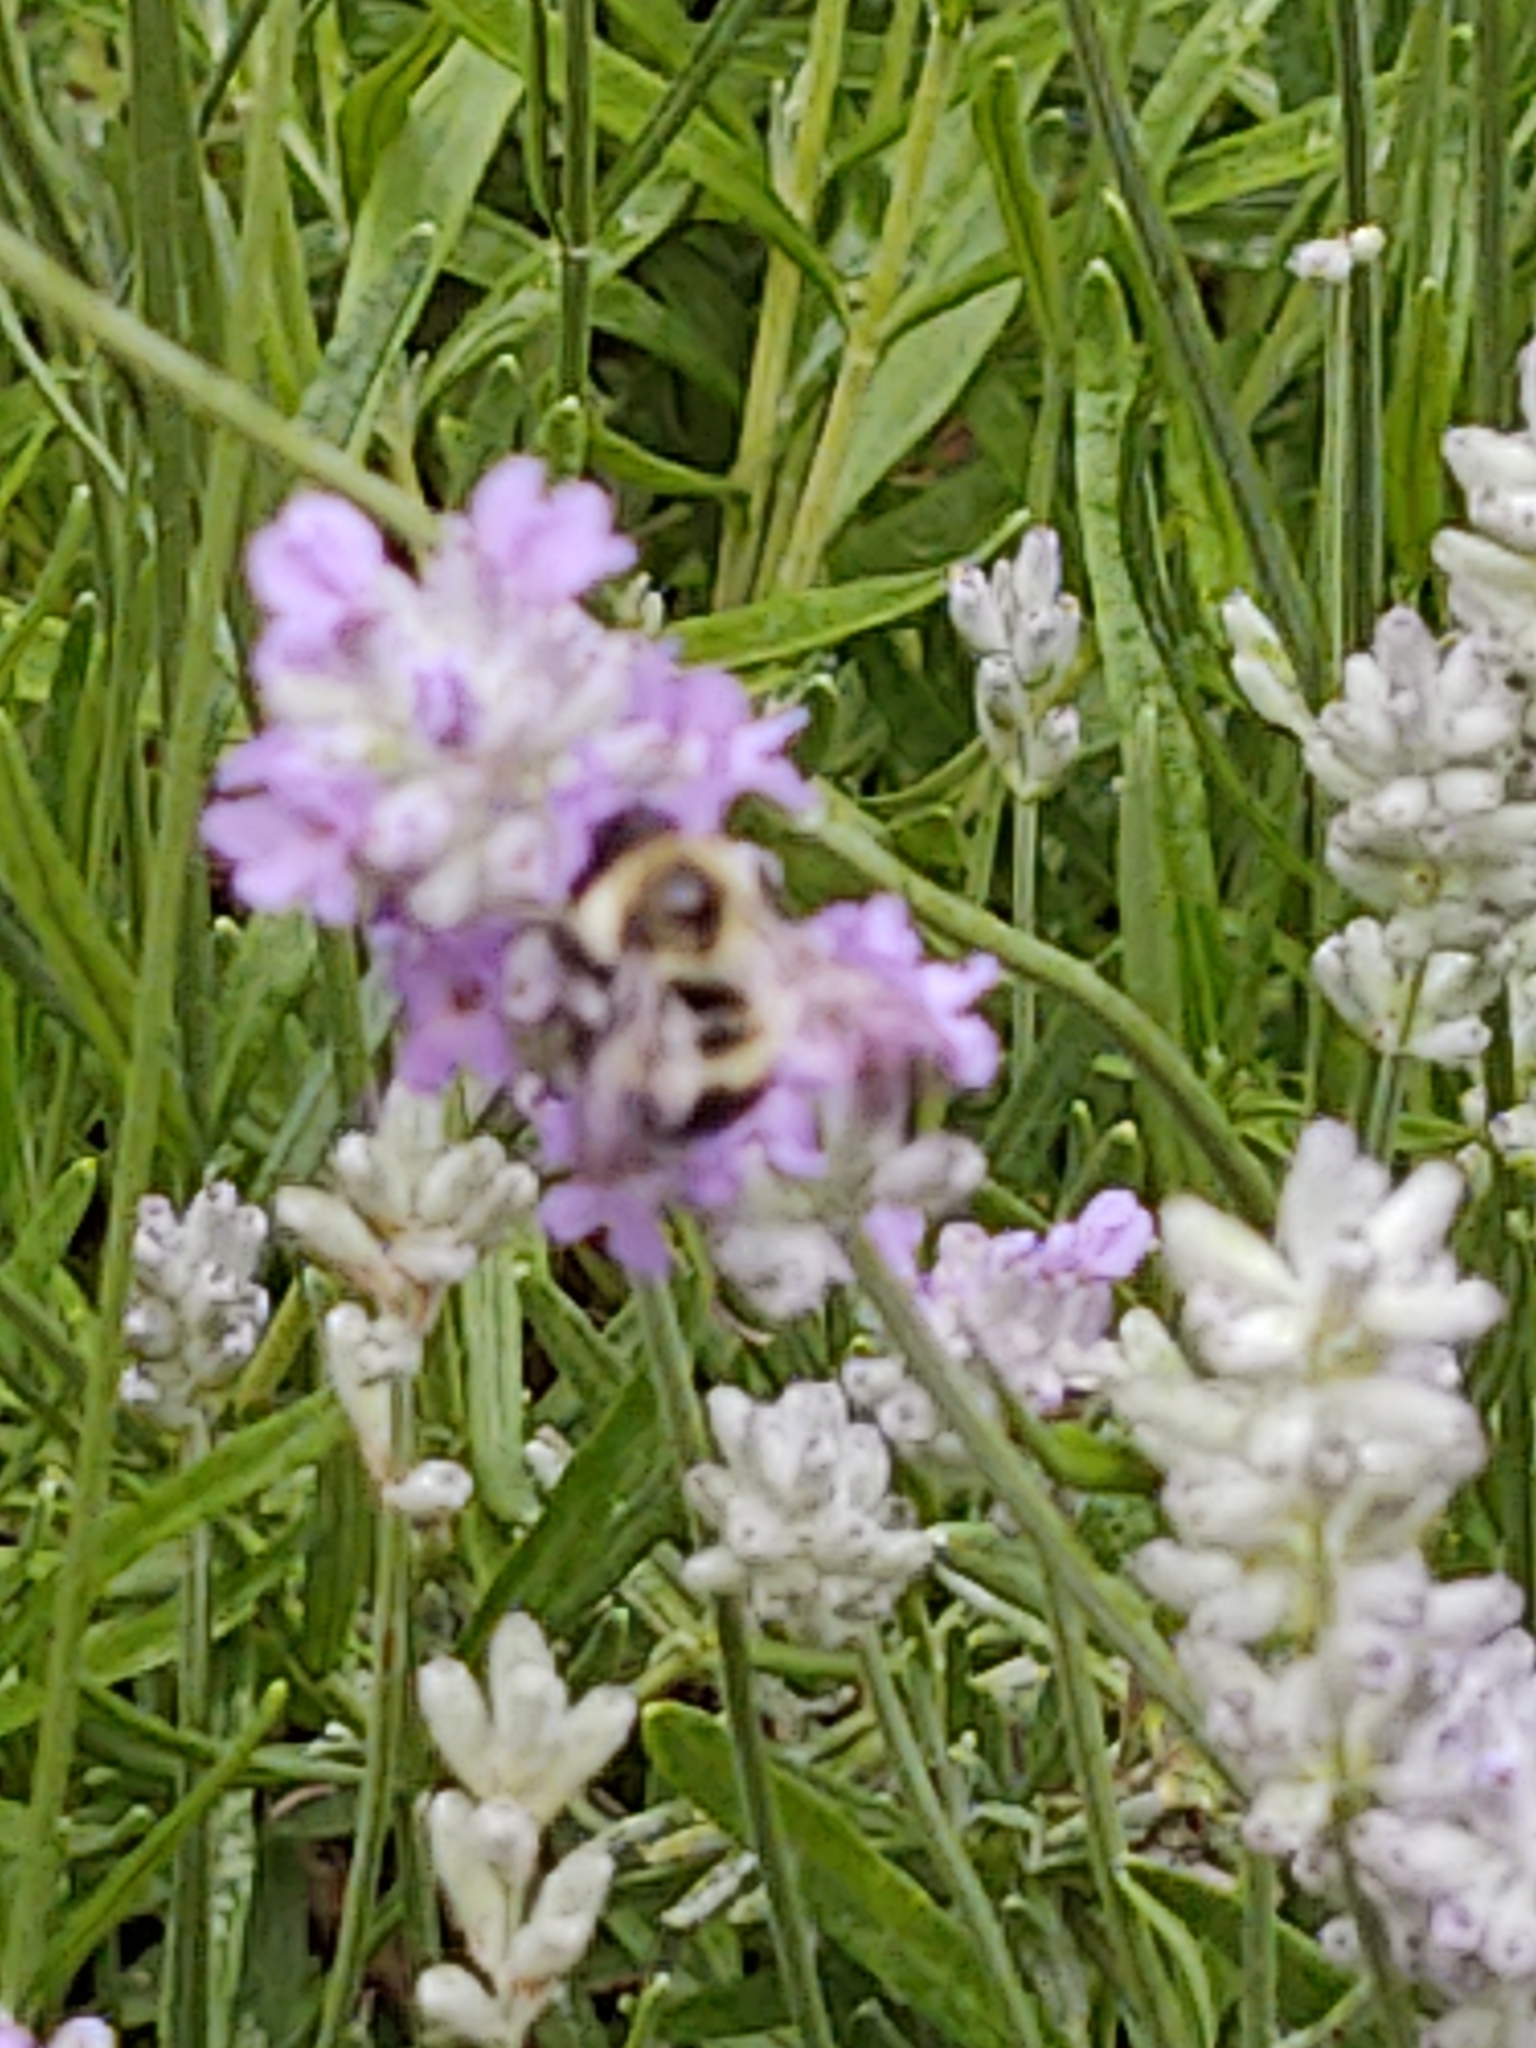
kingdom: Animalia
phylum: Arthropoda
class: Insecta
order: Hymenoptera
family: Apidae
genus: Bombus
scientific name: Bombus bimaculatus
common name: Two-spotted bumble bee
